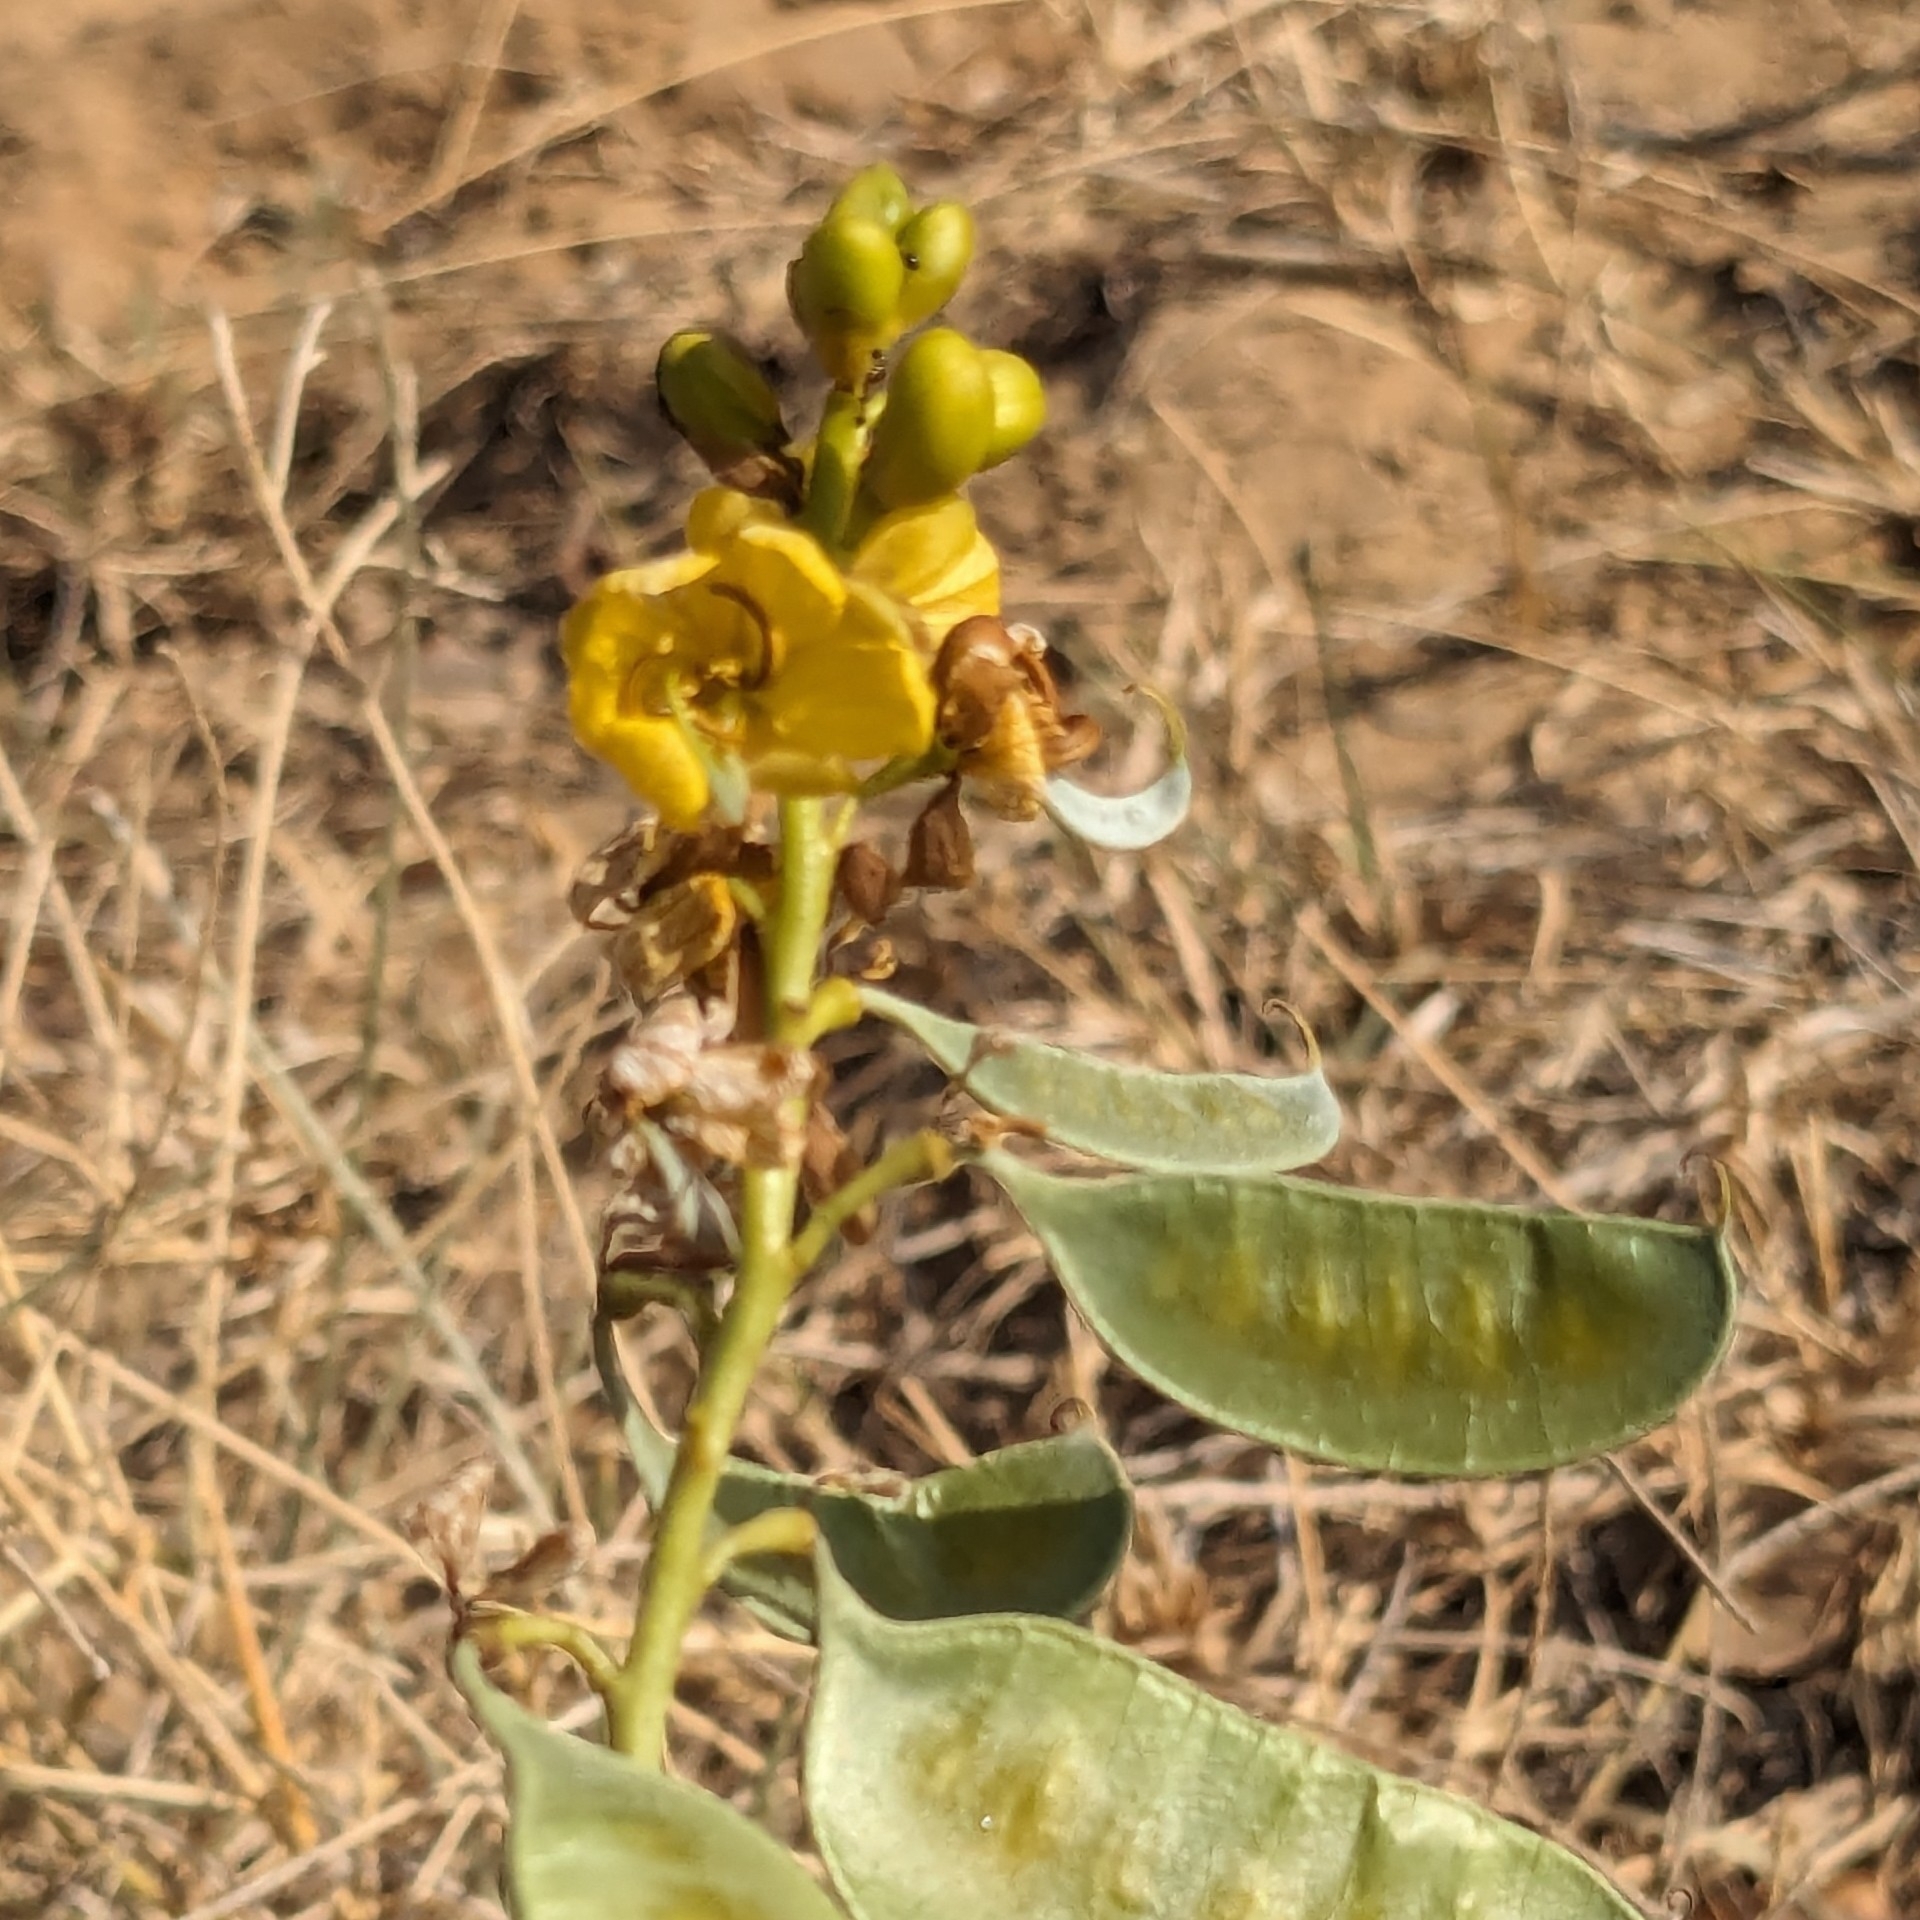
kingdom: Plantae
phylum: Tracheophyta
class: Magnoliopsida
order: Fabales
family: Fabaceae
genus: Senna
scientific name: Senna italica
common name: Port royal senna
